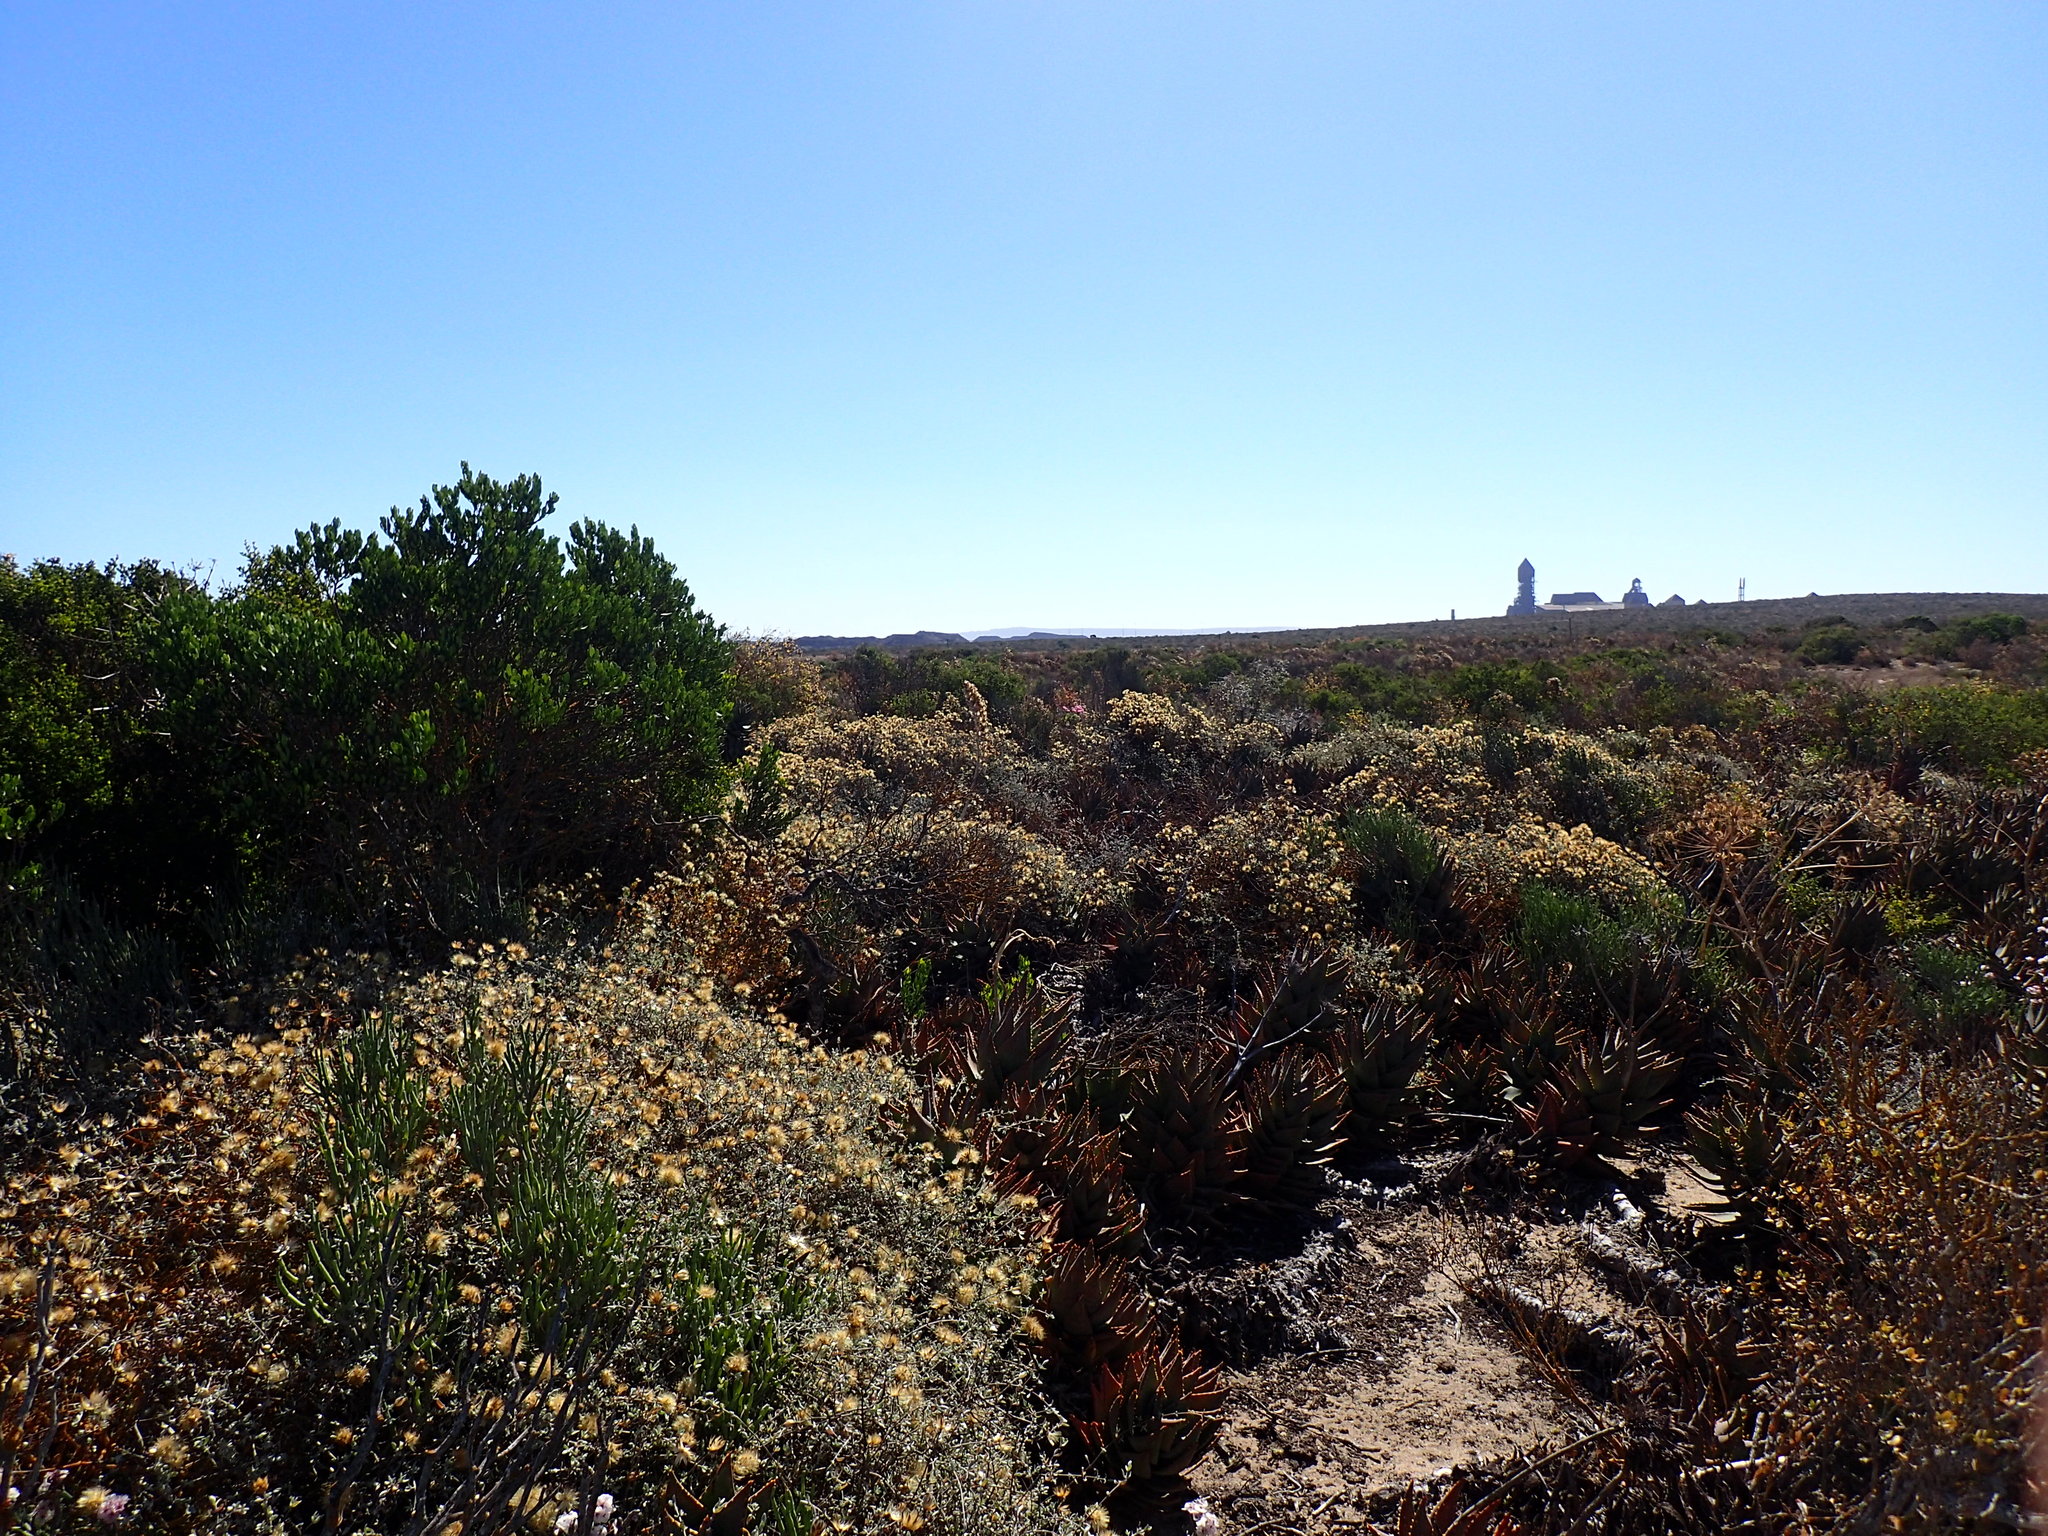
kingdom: Plantae
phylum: Tracheophyta
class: Liliopsida
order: Asparagales
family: Asphodelaceae
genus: Aloe
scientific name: Aloe distans
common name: Short-leaved aloe
